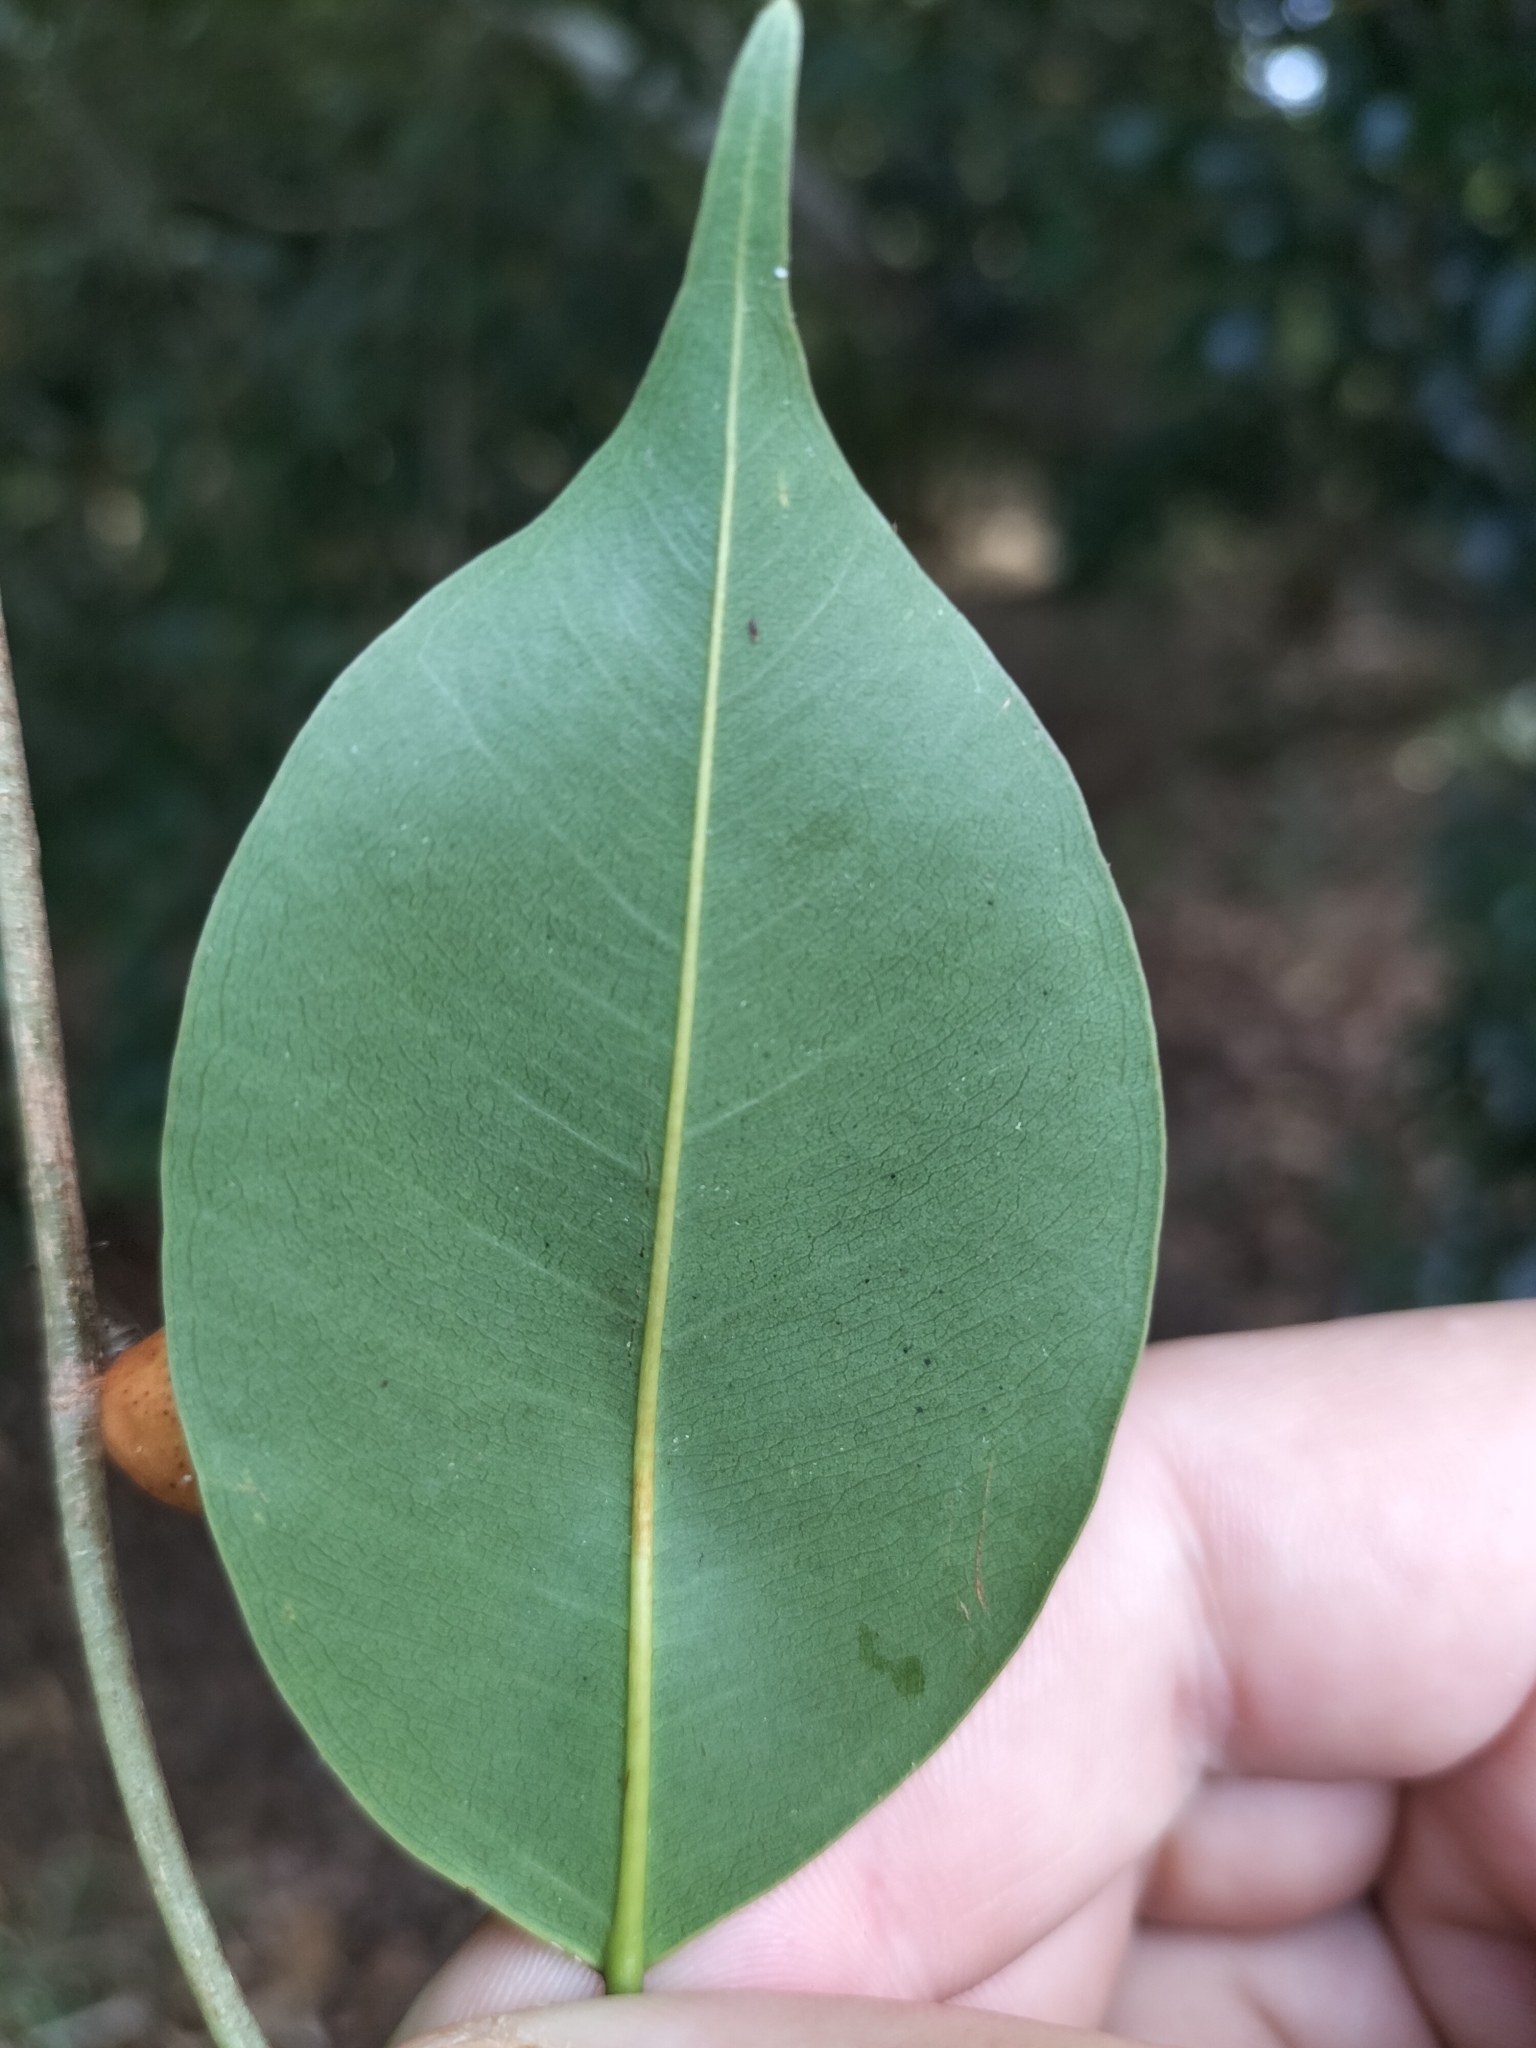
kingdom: Plantae
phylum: Tracheophyta
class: Magnoliopsida
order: Rosales
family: Moraceae
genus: Ficus
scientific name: Ficus benjamina
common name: Weeping fig
